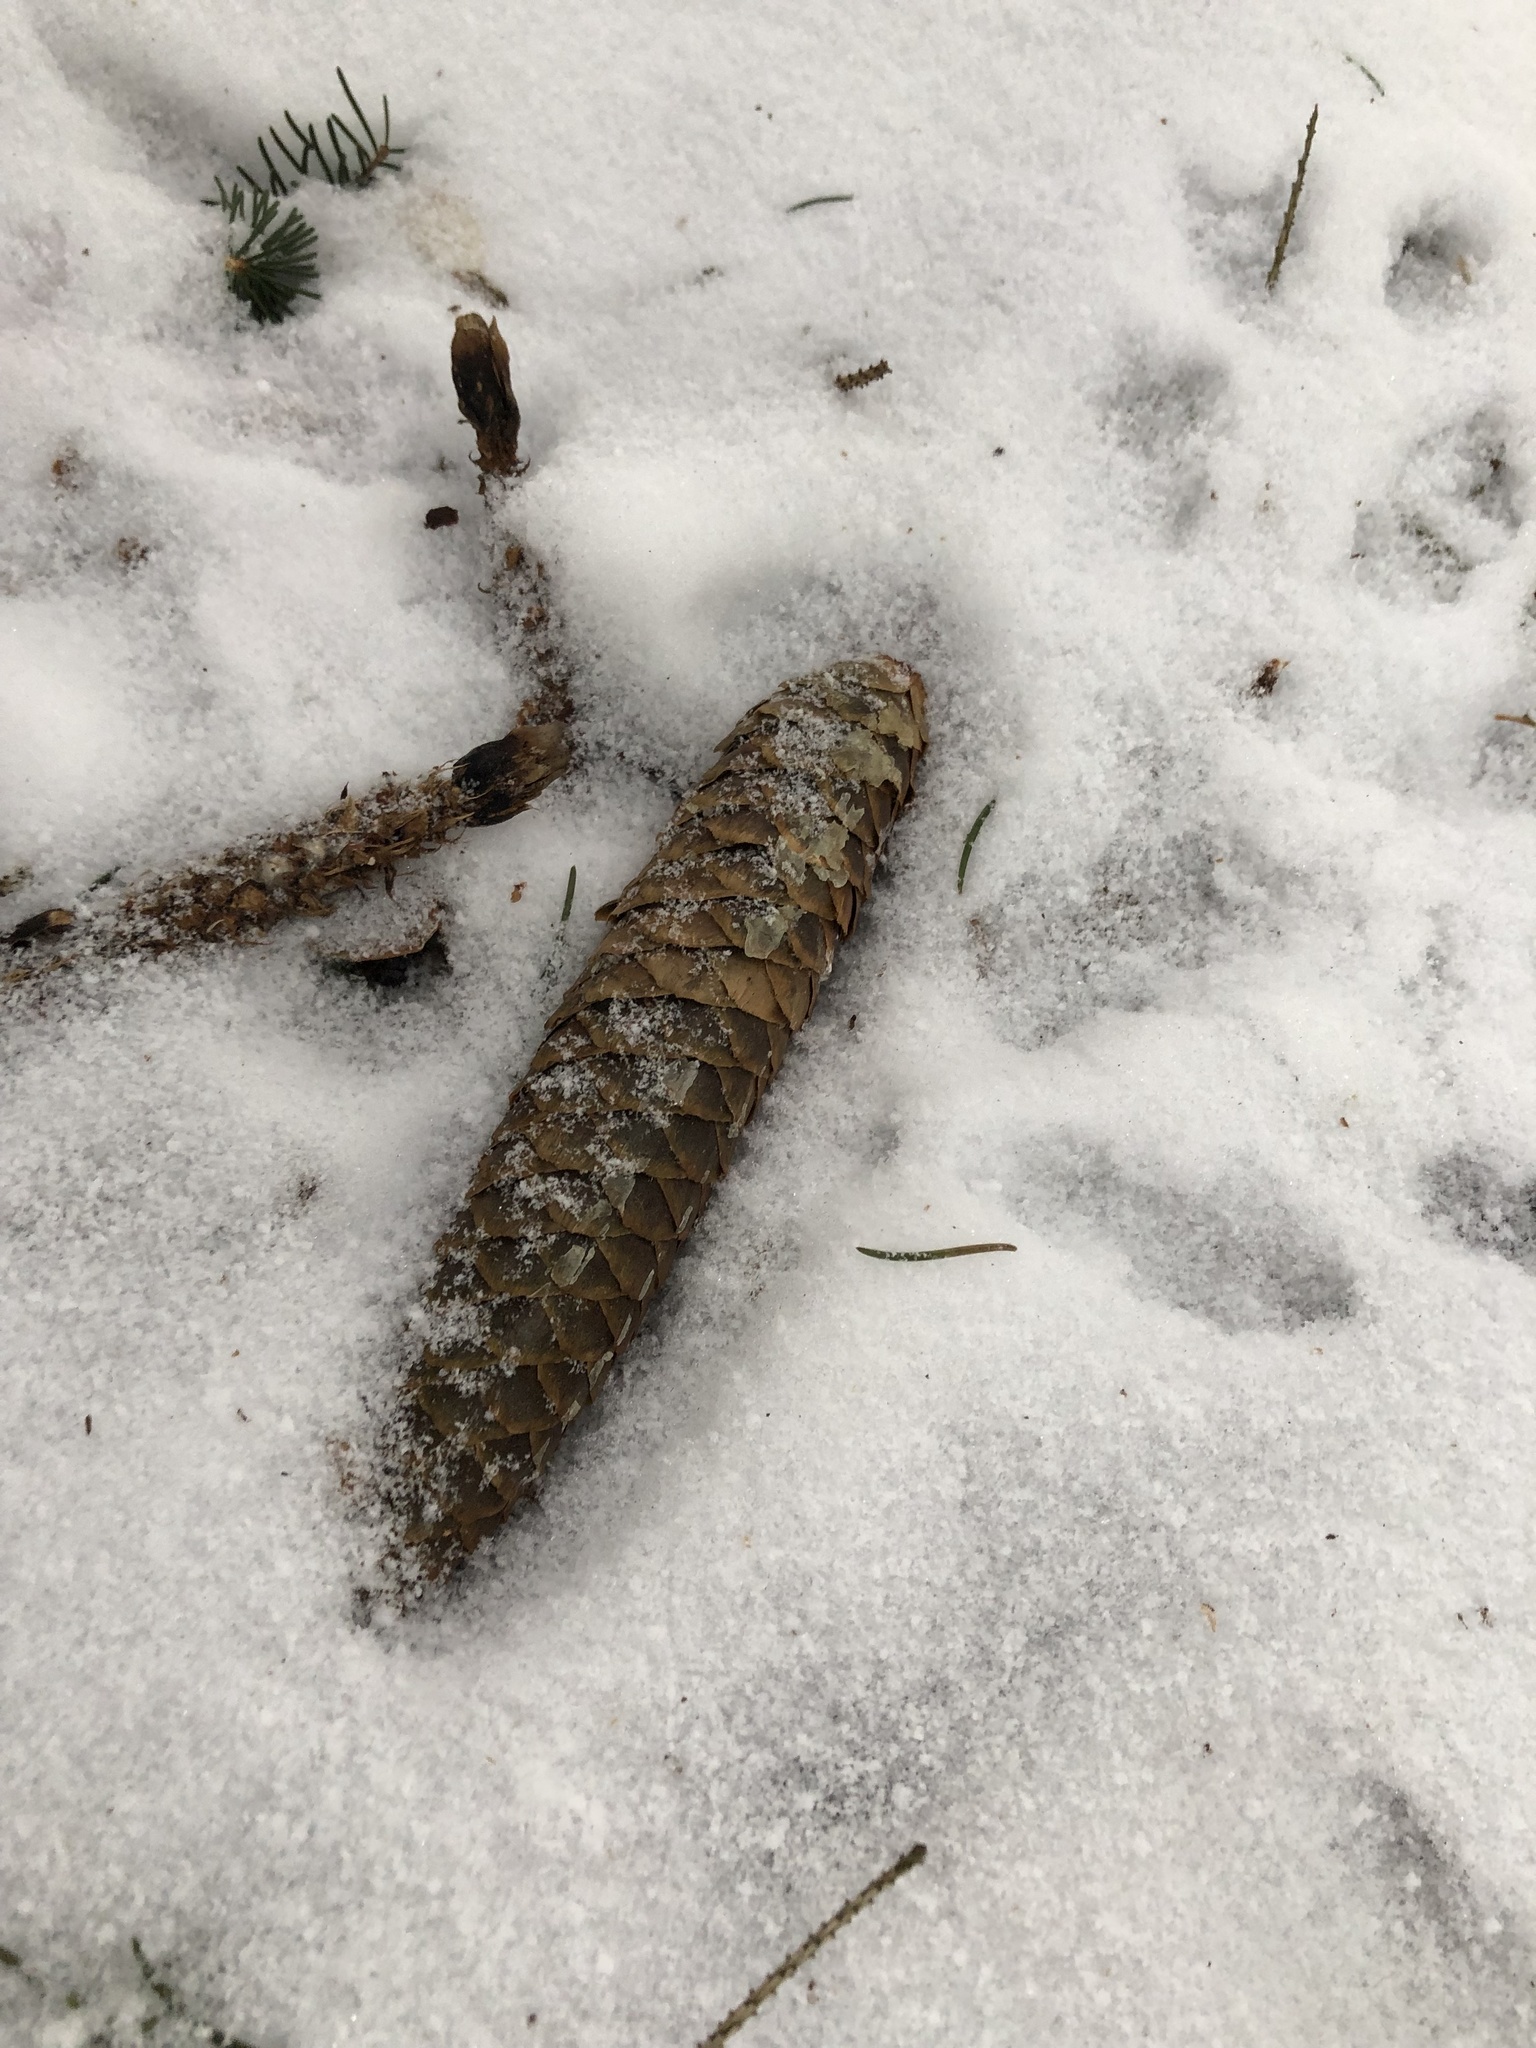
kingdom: Plantae
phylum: Tracheophyta
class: Pinopsida
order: Pinales
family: Pinaceae
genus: Picea
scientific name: Picea abies
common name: Norway spruce
